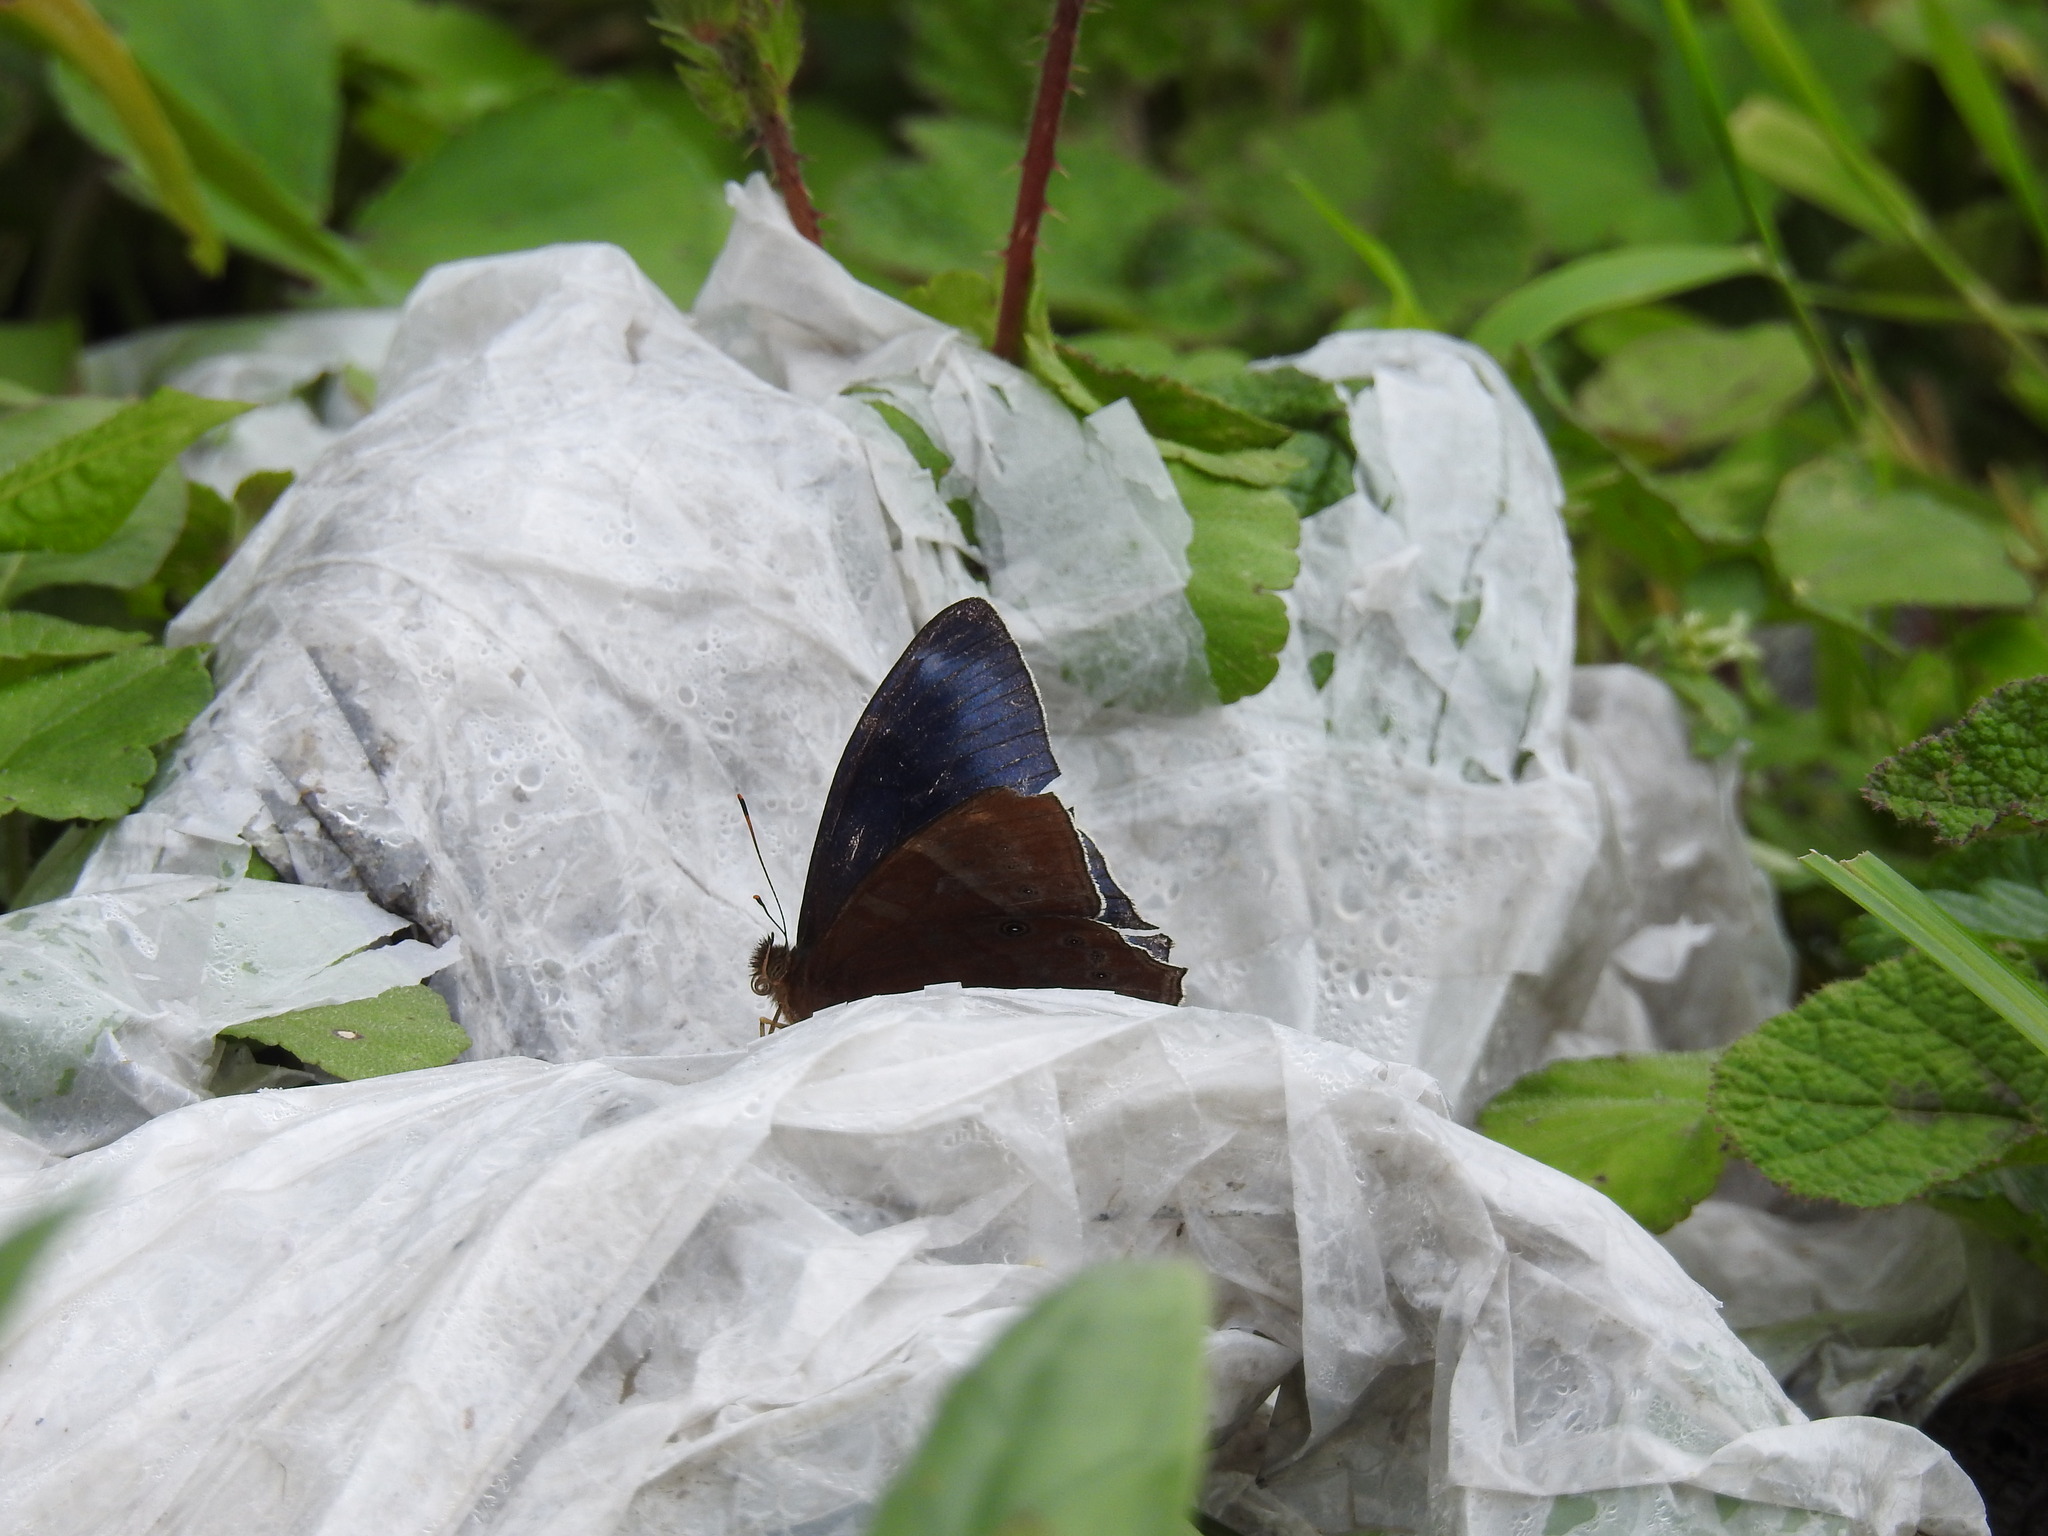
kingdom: Animalia
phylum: Arthropoda
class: Insecta
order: Lepidoptera
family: Nymphalidae
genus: Lethe
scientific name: Lethe scanda
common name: Blue forester
